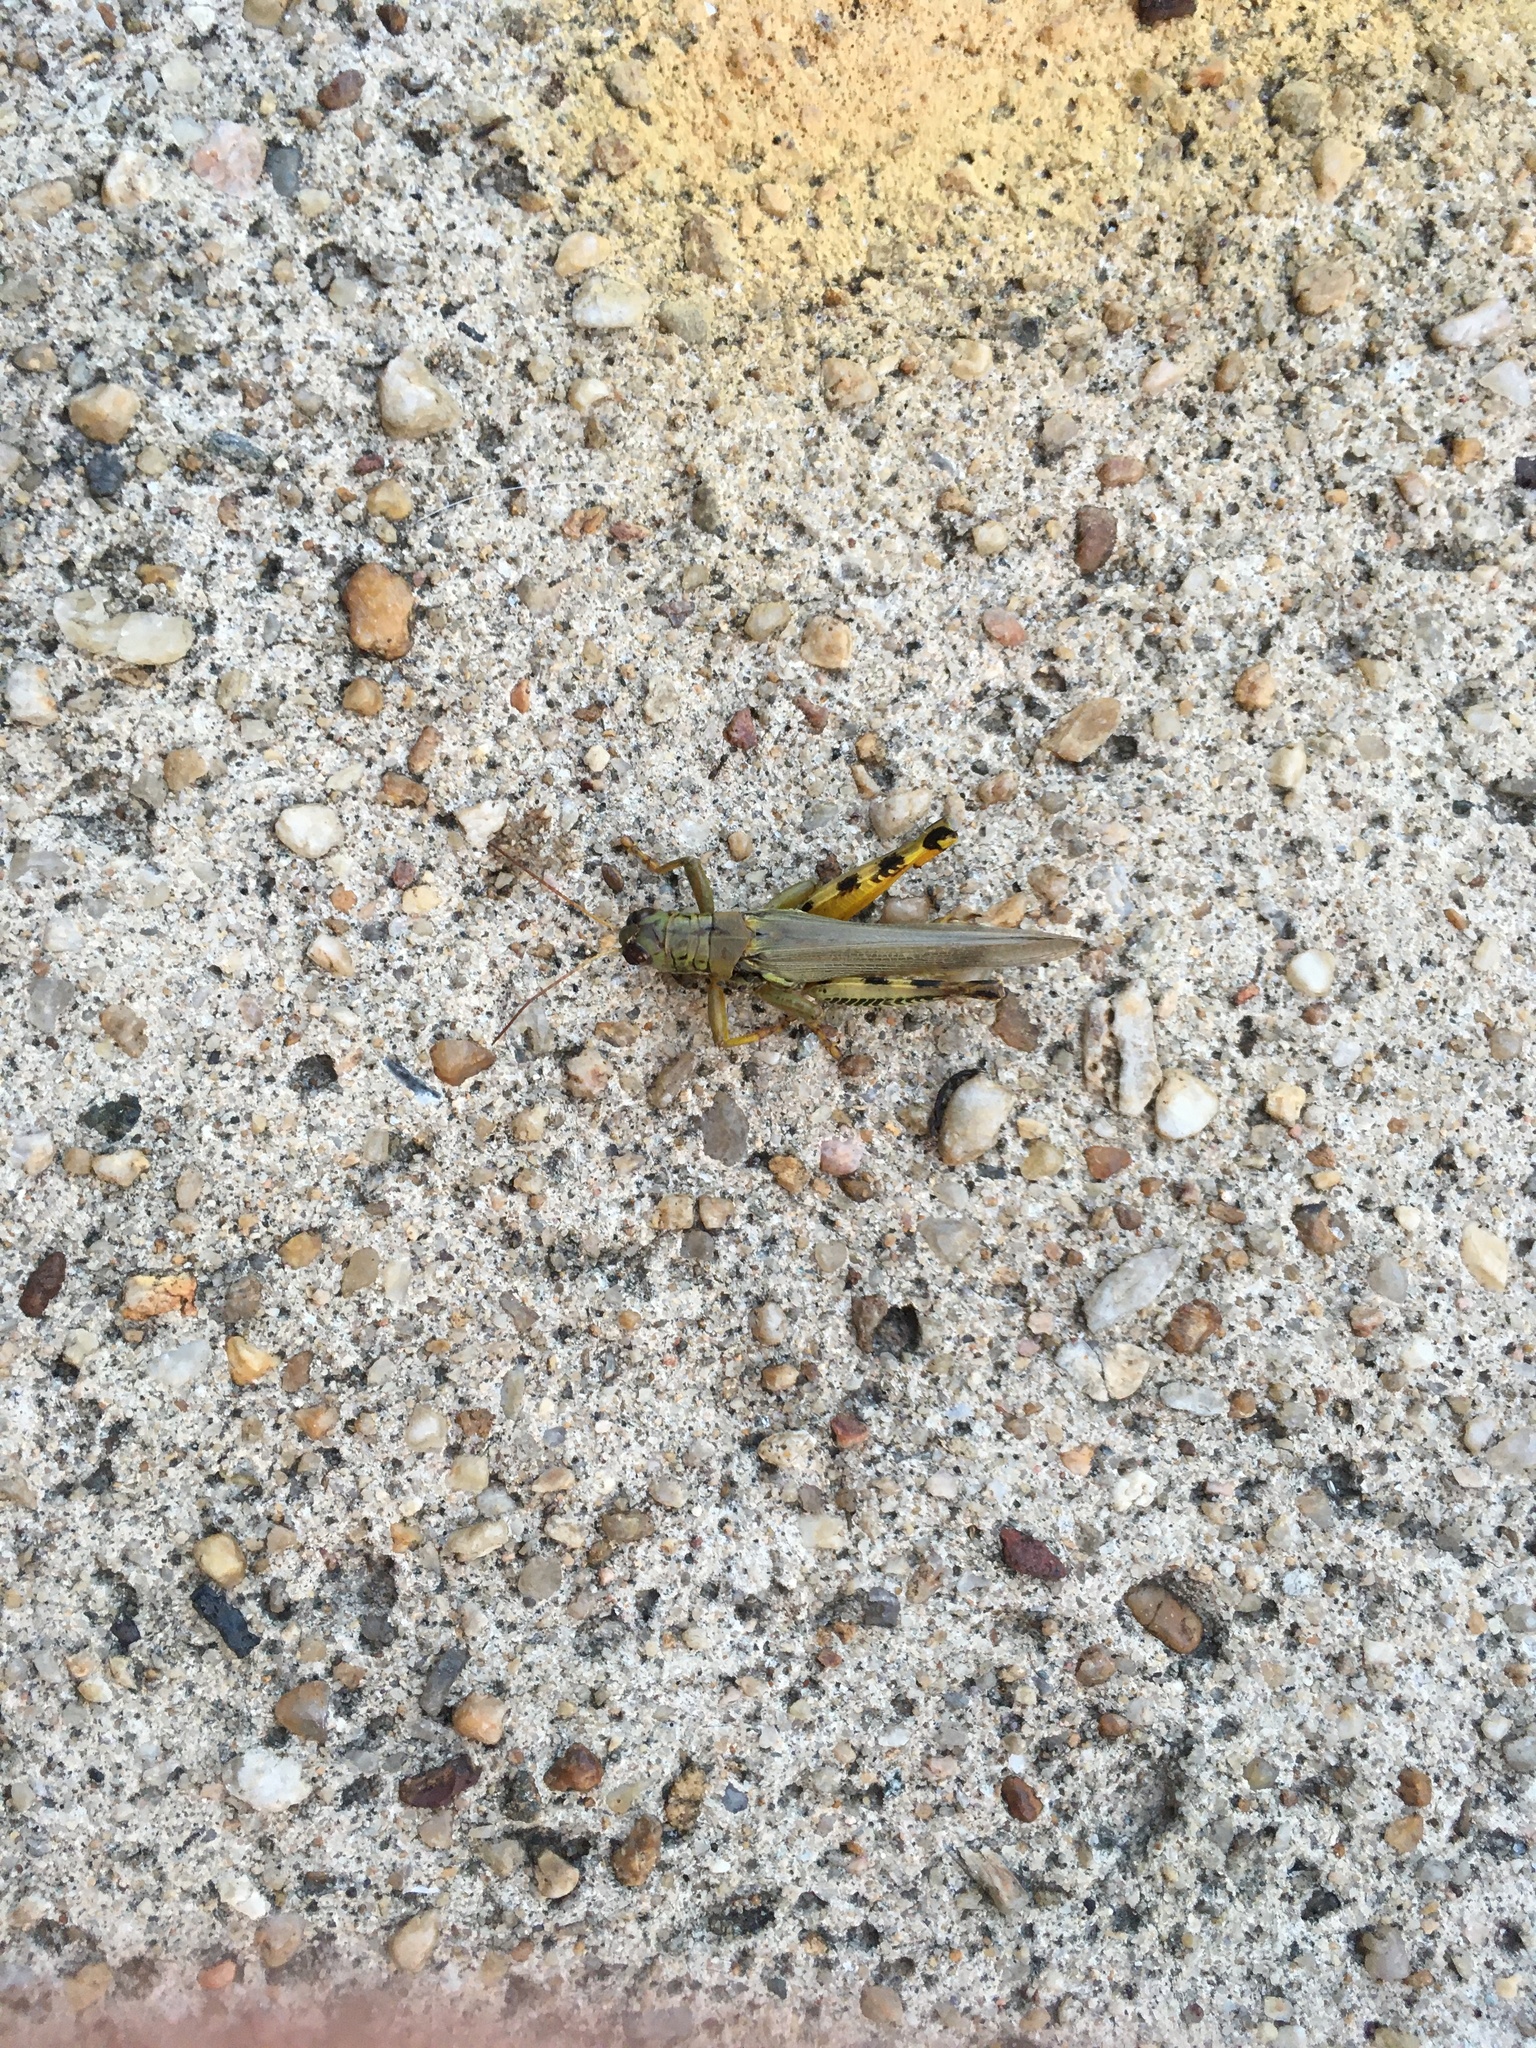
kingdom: Animalia
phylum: Arthropoda
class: Insecta
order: Orthoptera
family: Acrididae
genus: Melanoplus
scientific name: Melanoplus differentialis
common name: Differential grasshopper
